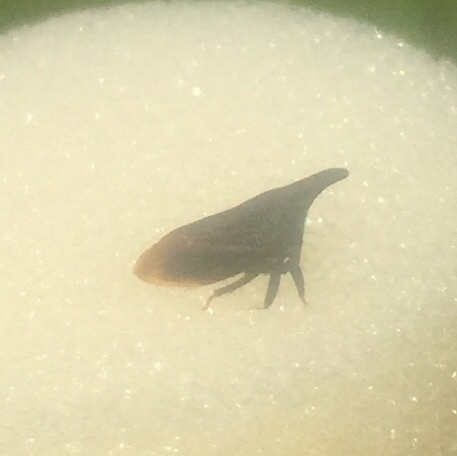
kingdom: Animalia
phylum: Arthropoda
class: Insecta
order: Hemiptera
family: Membracidae
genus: Enchenopa
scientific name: Enchenopa latipes
